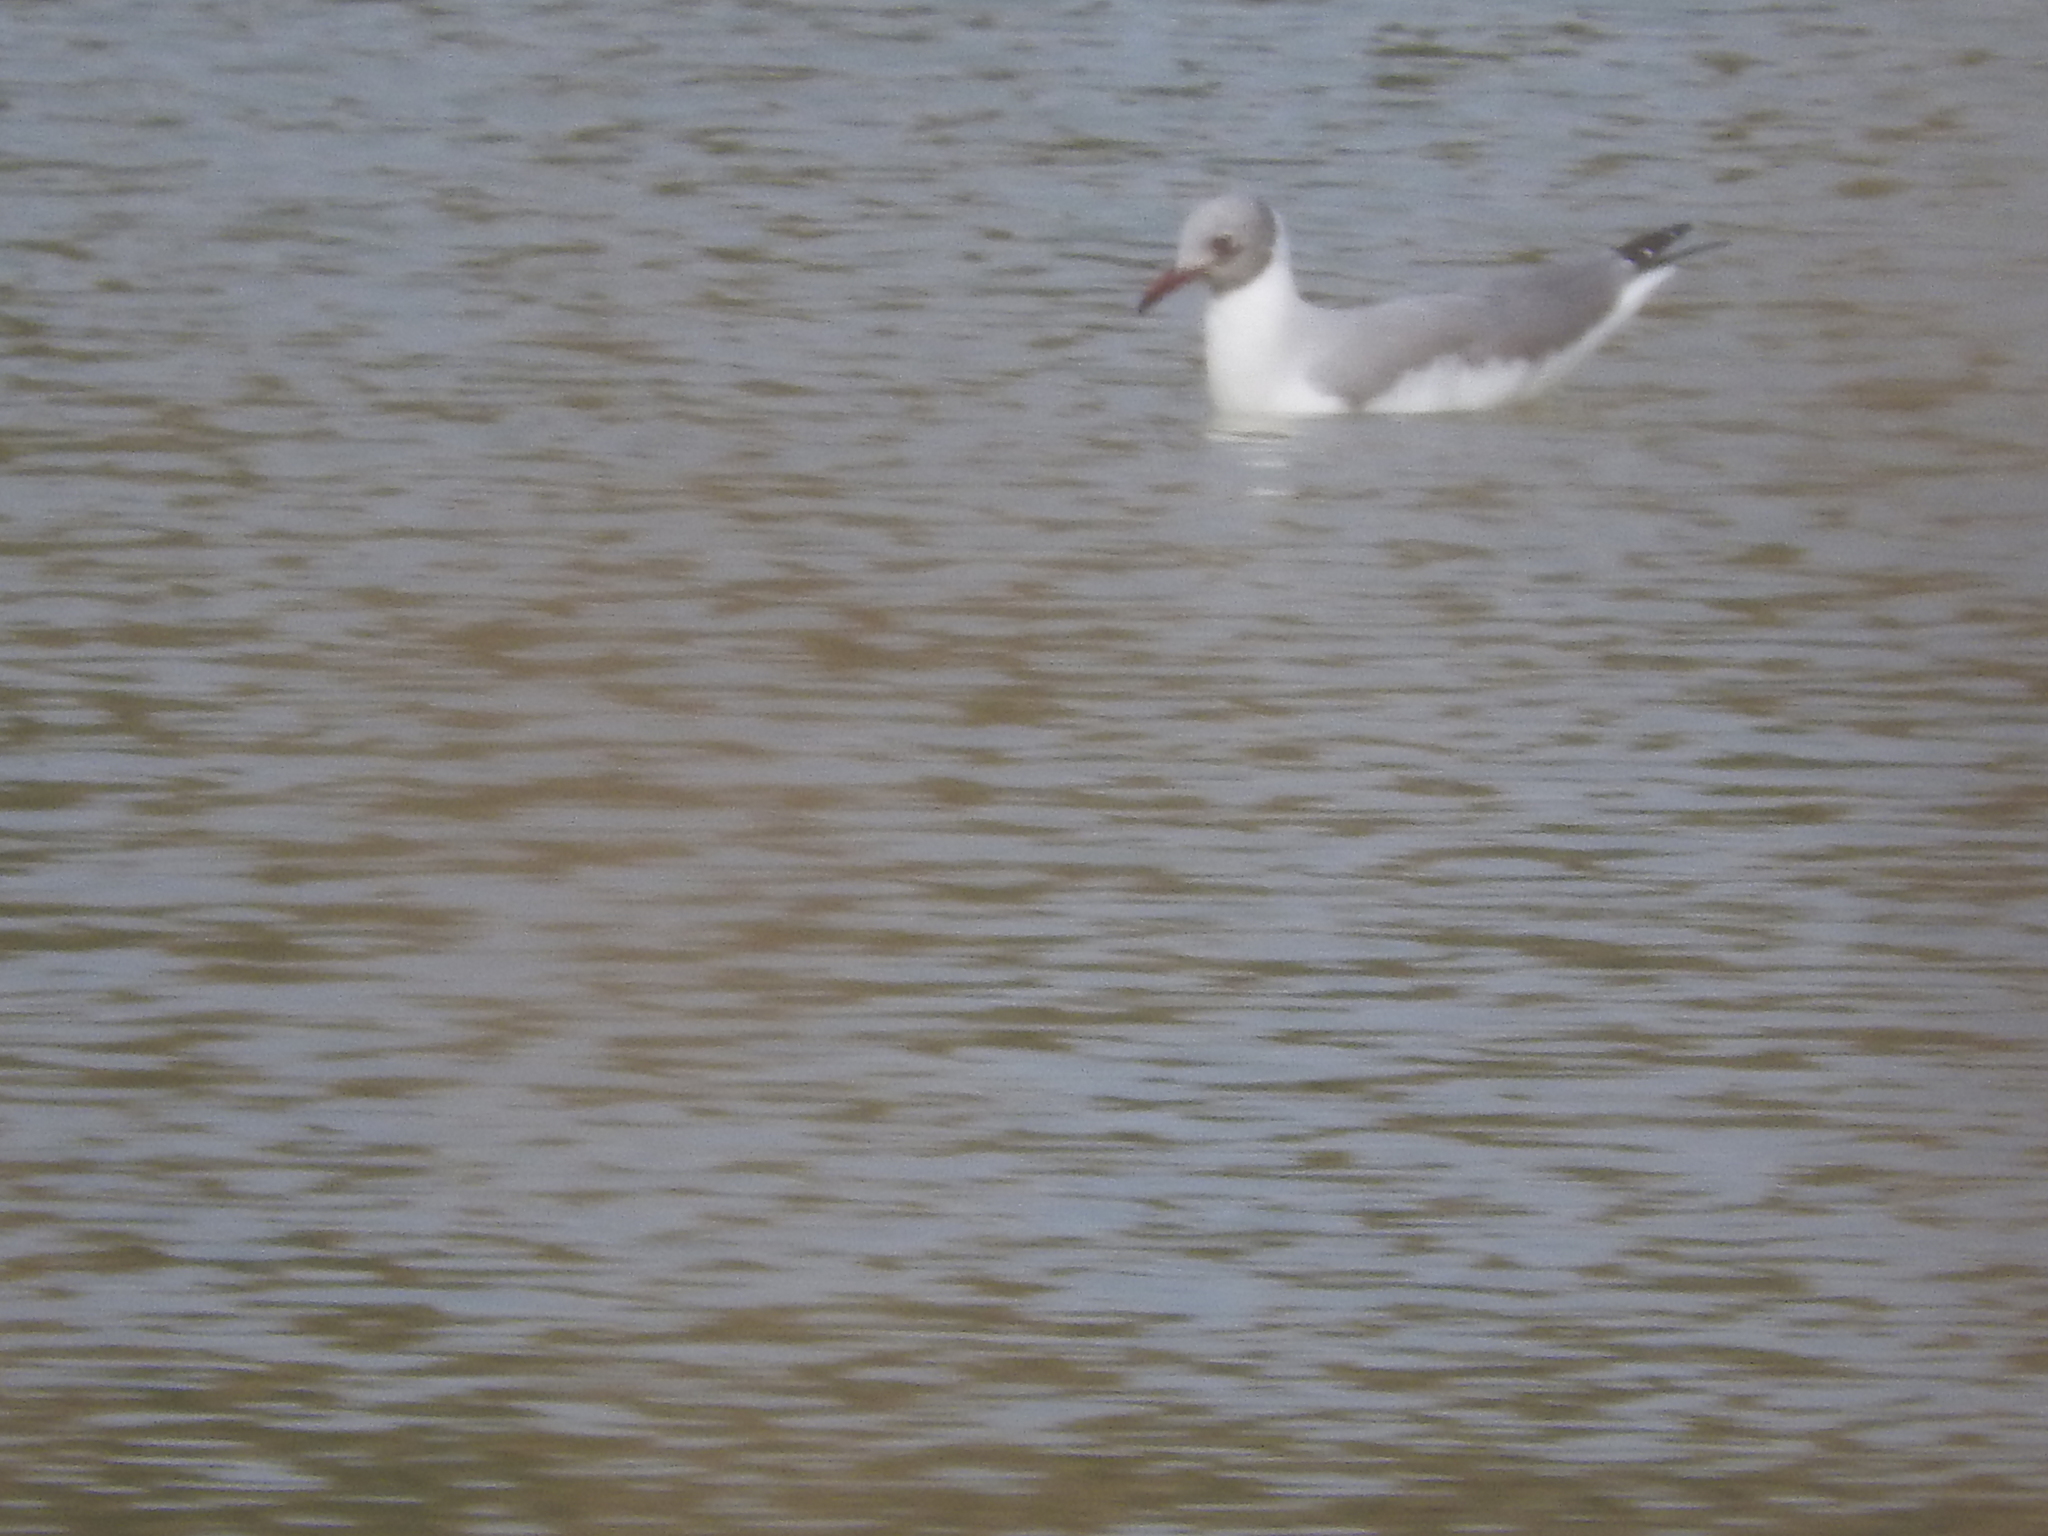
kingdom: Animalia
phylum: Chordata
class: Aves
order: Charadriiformes
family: Laridae
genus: Chroicocephalus
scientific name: Chroicocephalus cirrocephalus
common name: Grey-headed gull
